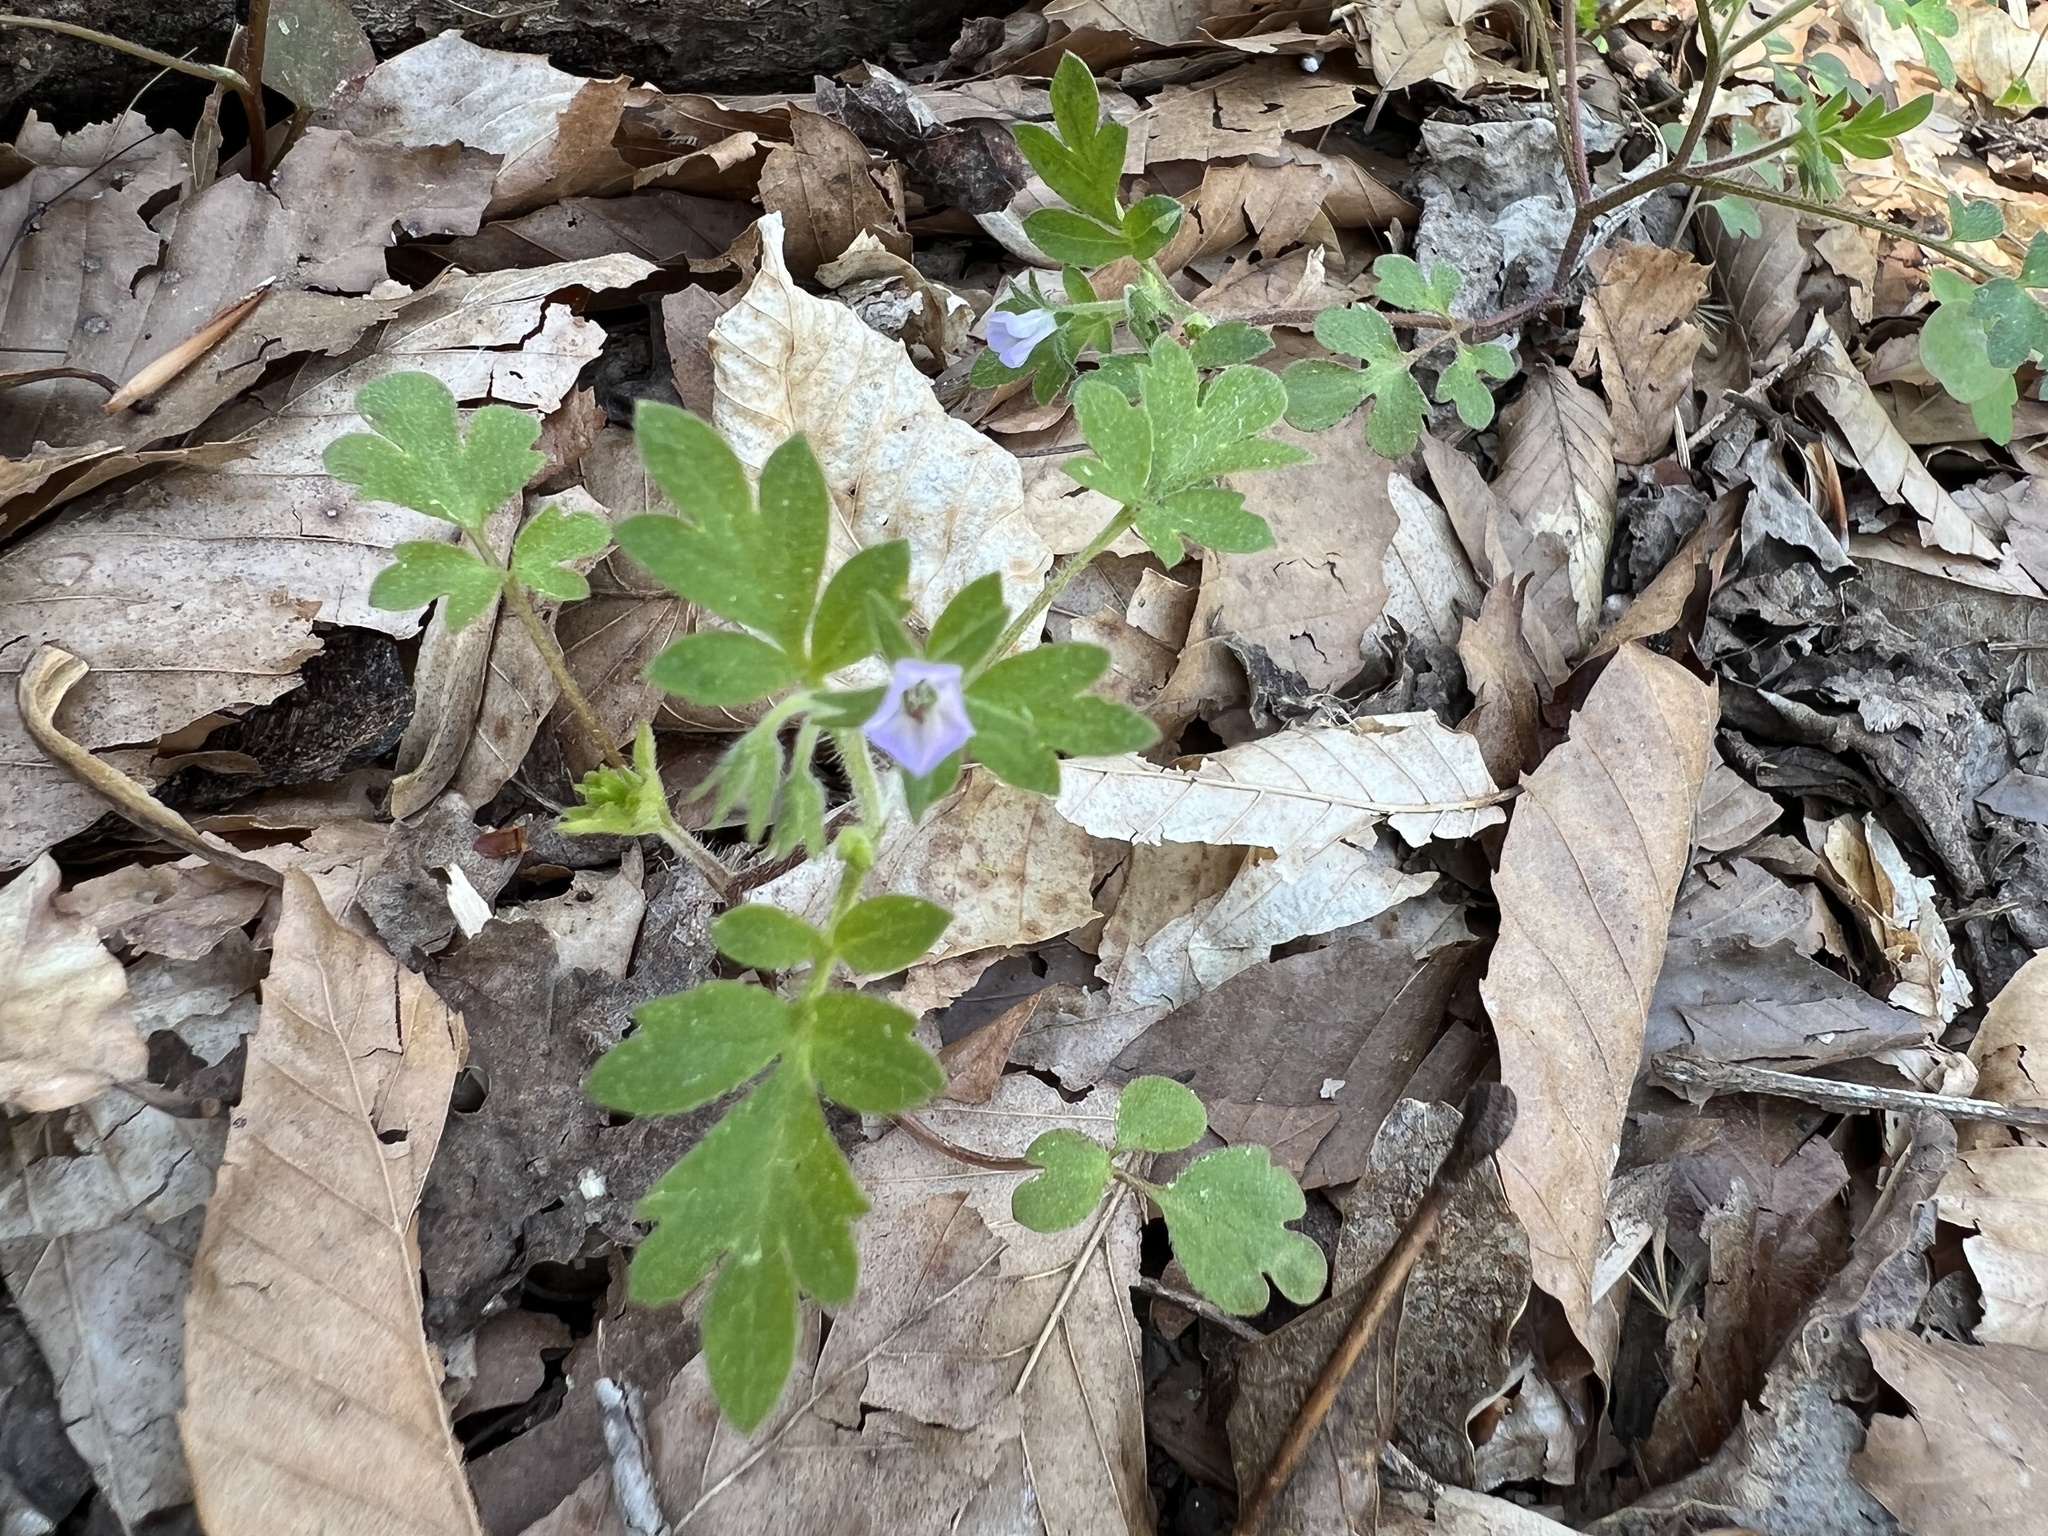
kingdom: Plantae
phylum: Tracheophyta
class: Magnoliopsida
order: Boraginales
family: Hydrophyllaceae
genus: Phacelia
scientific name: Phacelia covillei
